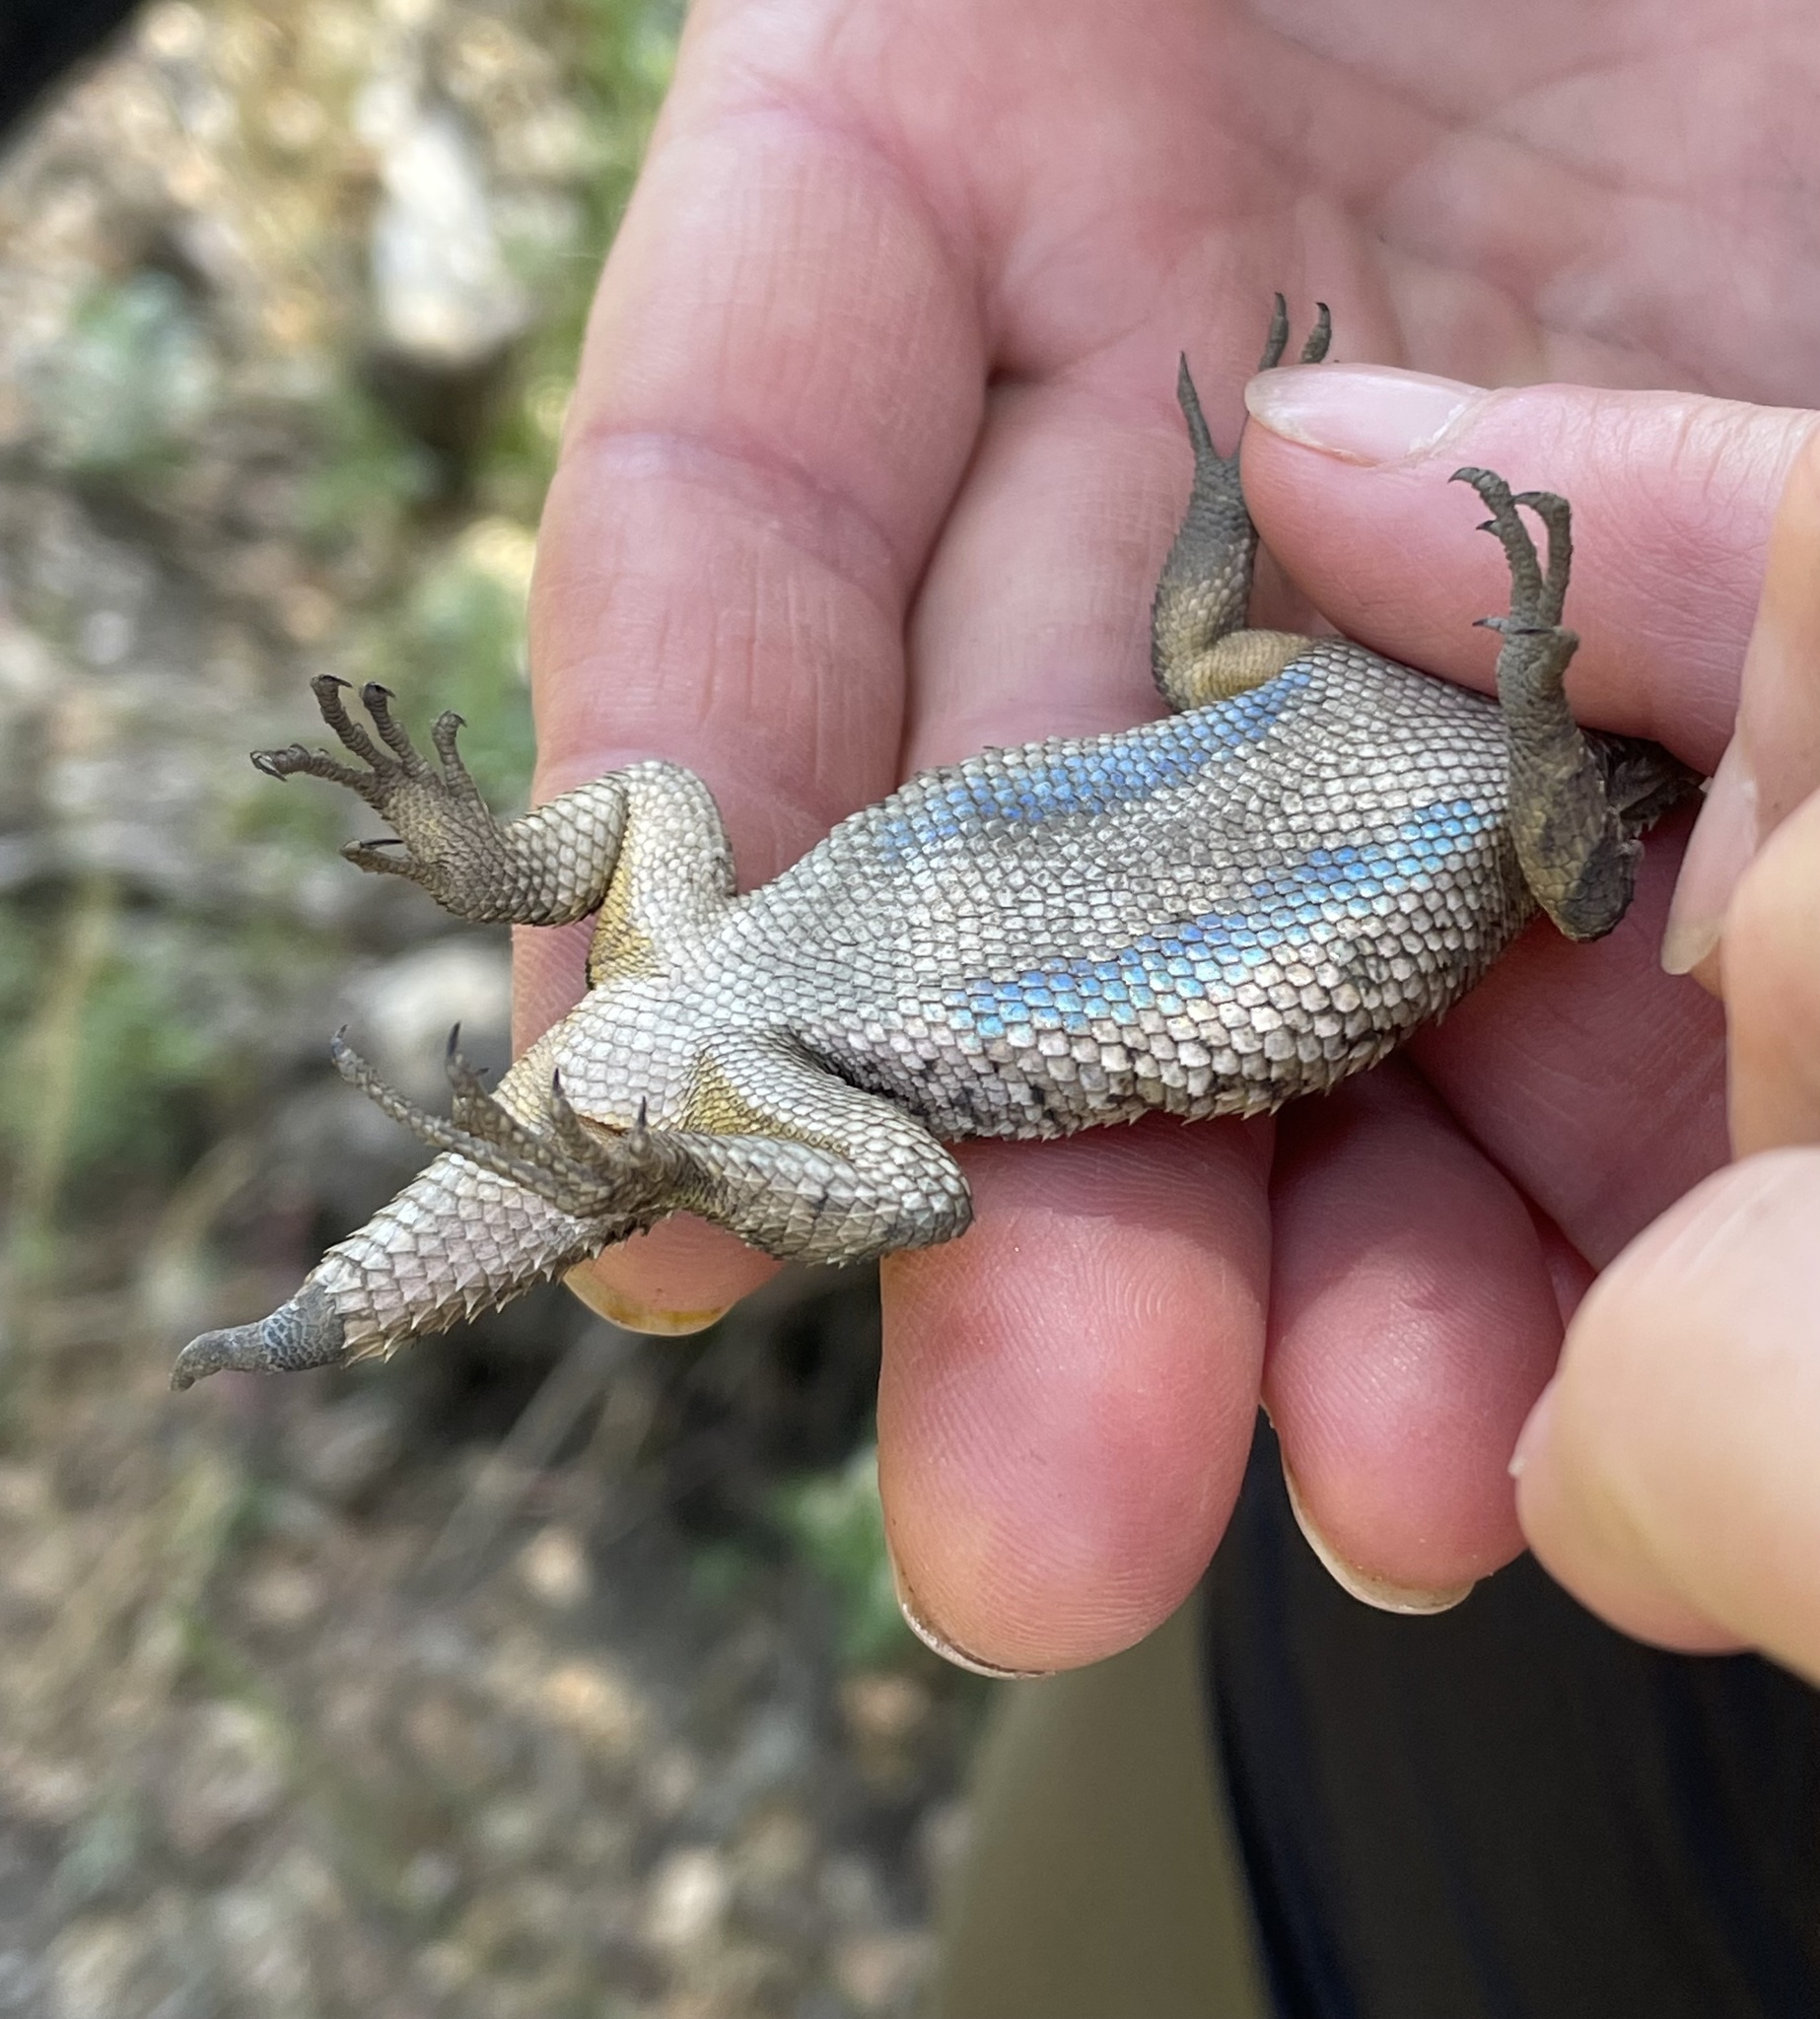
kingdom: Animalia
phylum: Chordata
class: Squamata
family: Phrynosomatidae
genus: Sceloporus
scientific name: Sceloporus occidentalis
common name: Western fence lizard
